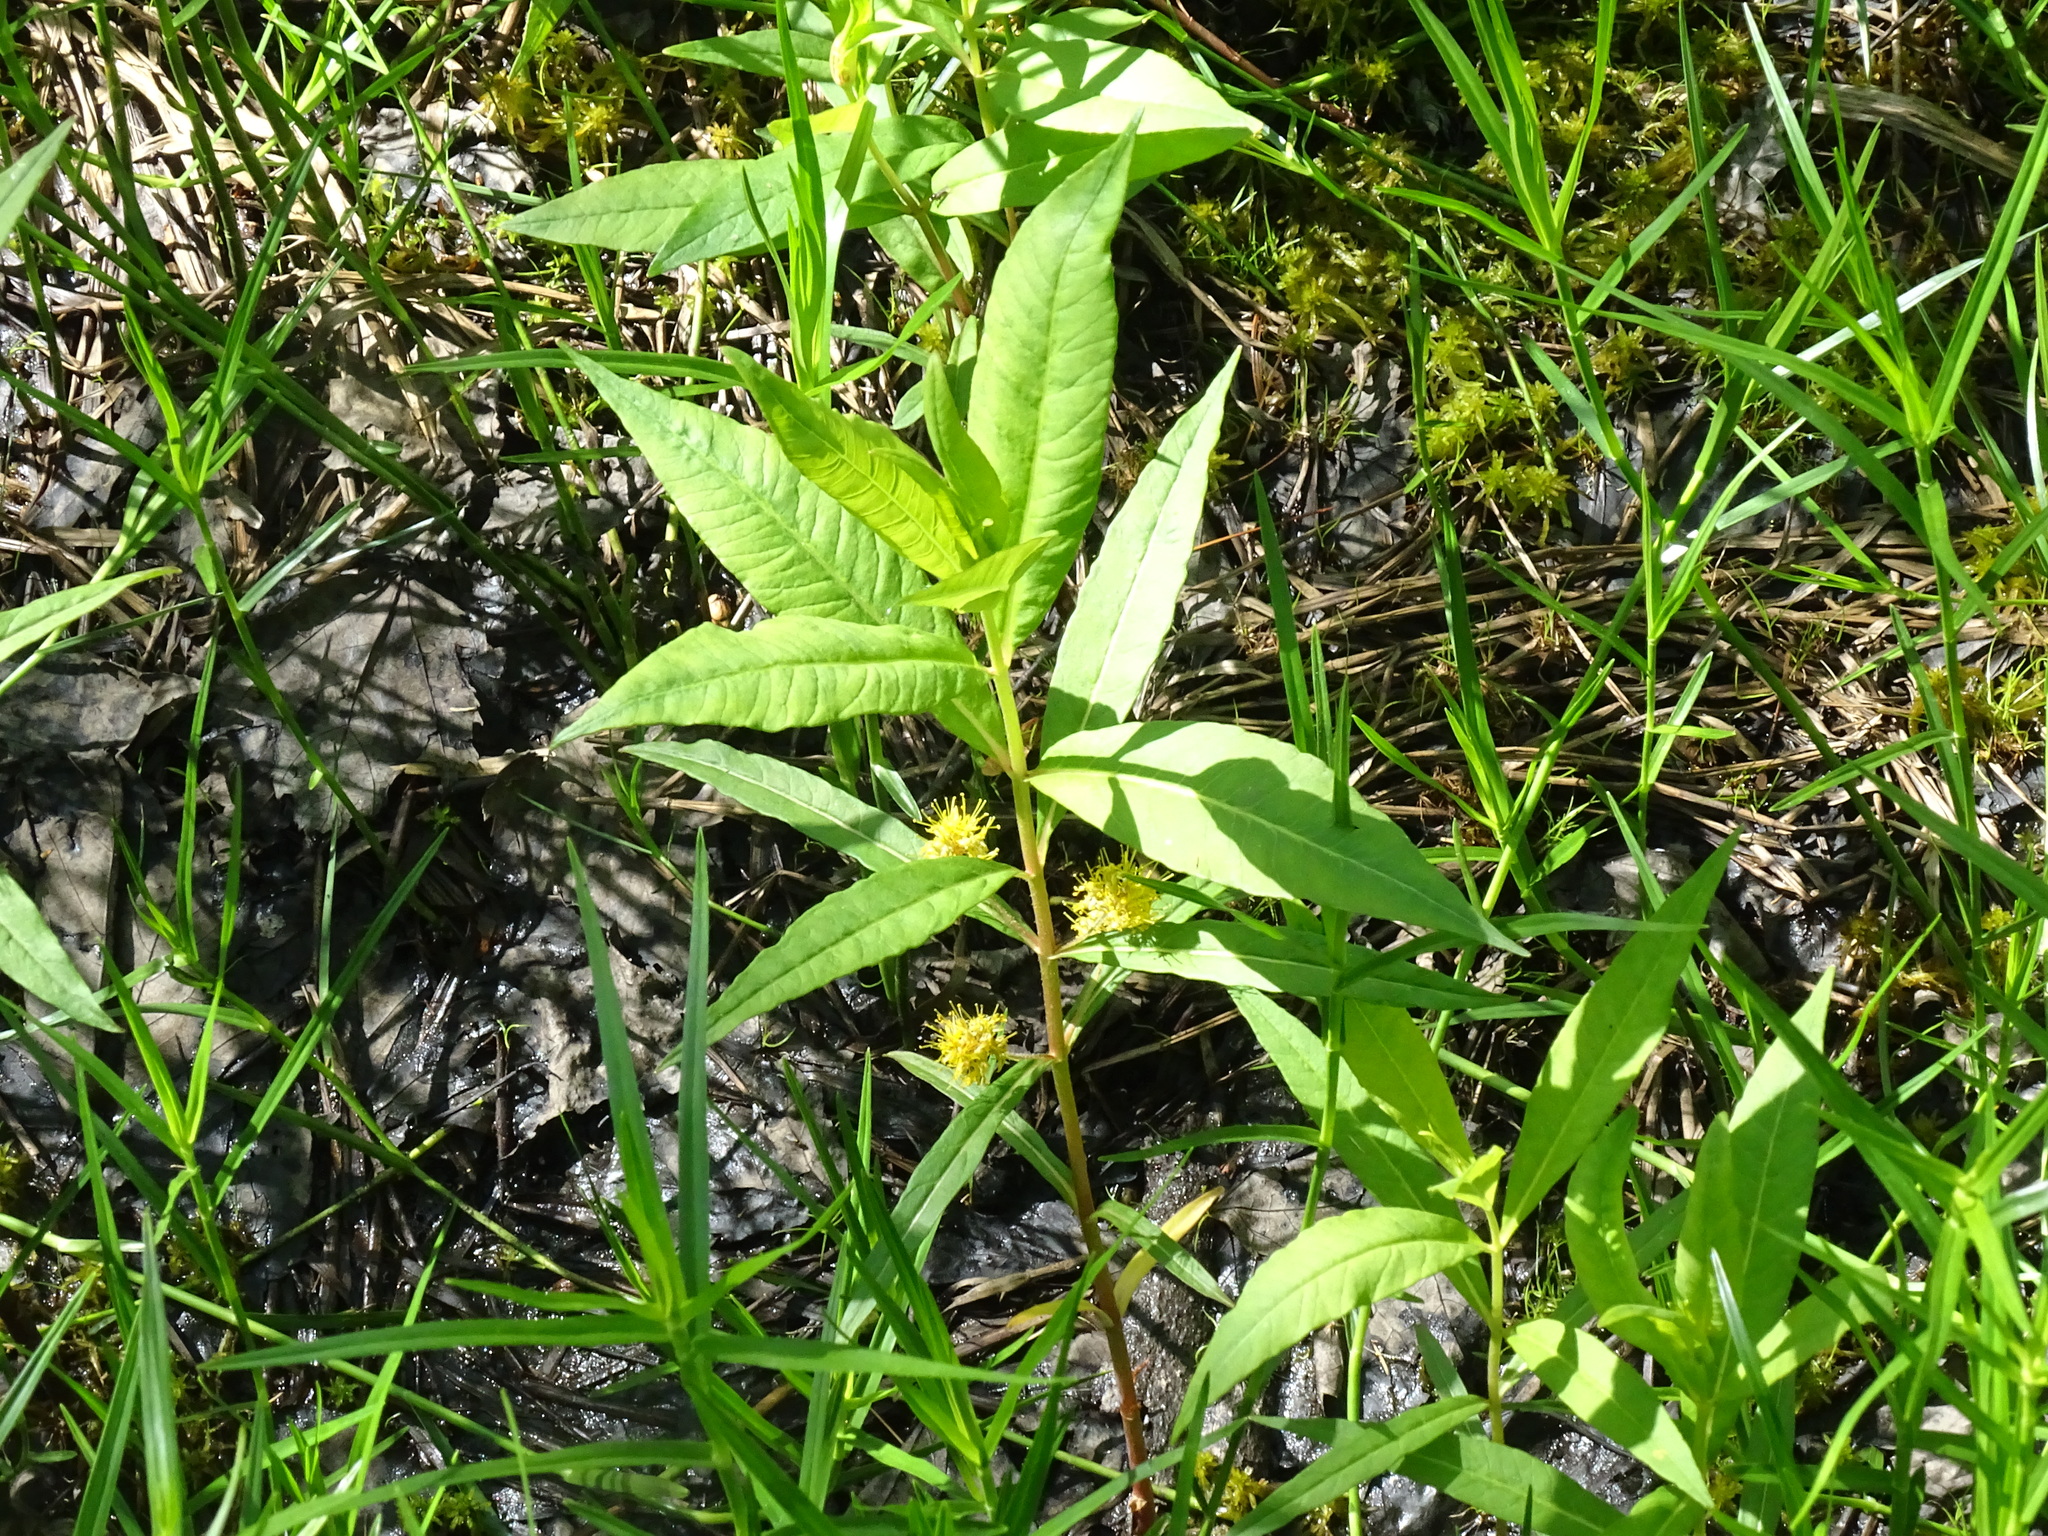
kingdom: Plantae
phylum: Tracheophyta
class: Magnoliopsida
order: Ericales
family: Primulaceae
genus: Lysimachia
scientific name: Lysimachia thyrsiflora
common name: Tufted loosestrife
